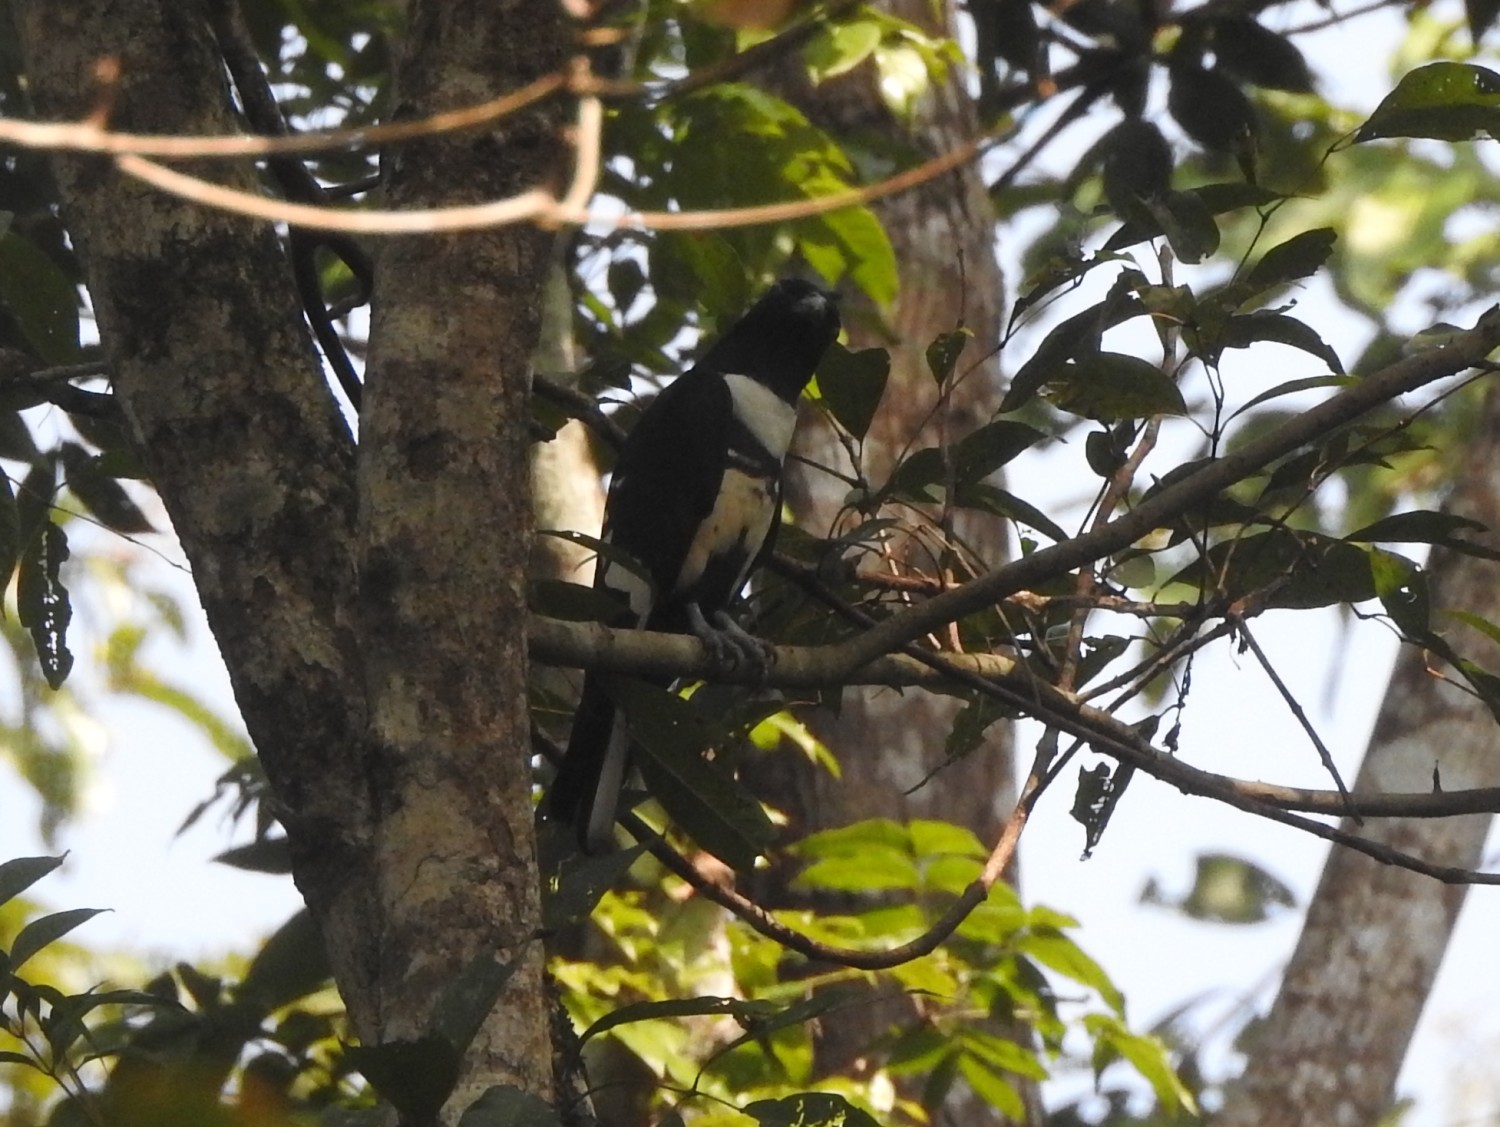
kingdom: Animalia
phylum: Chordata
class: Aves
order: Accipitriformes
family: Accipitridae
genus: Aviceda
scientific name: Aviceda leuphotes
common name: Black baza
